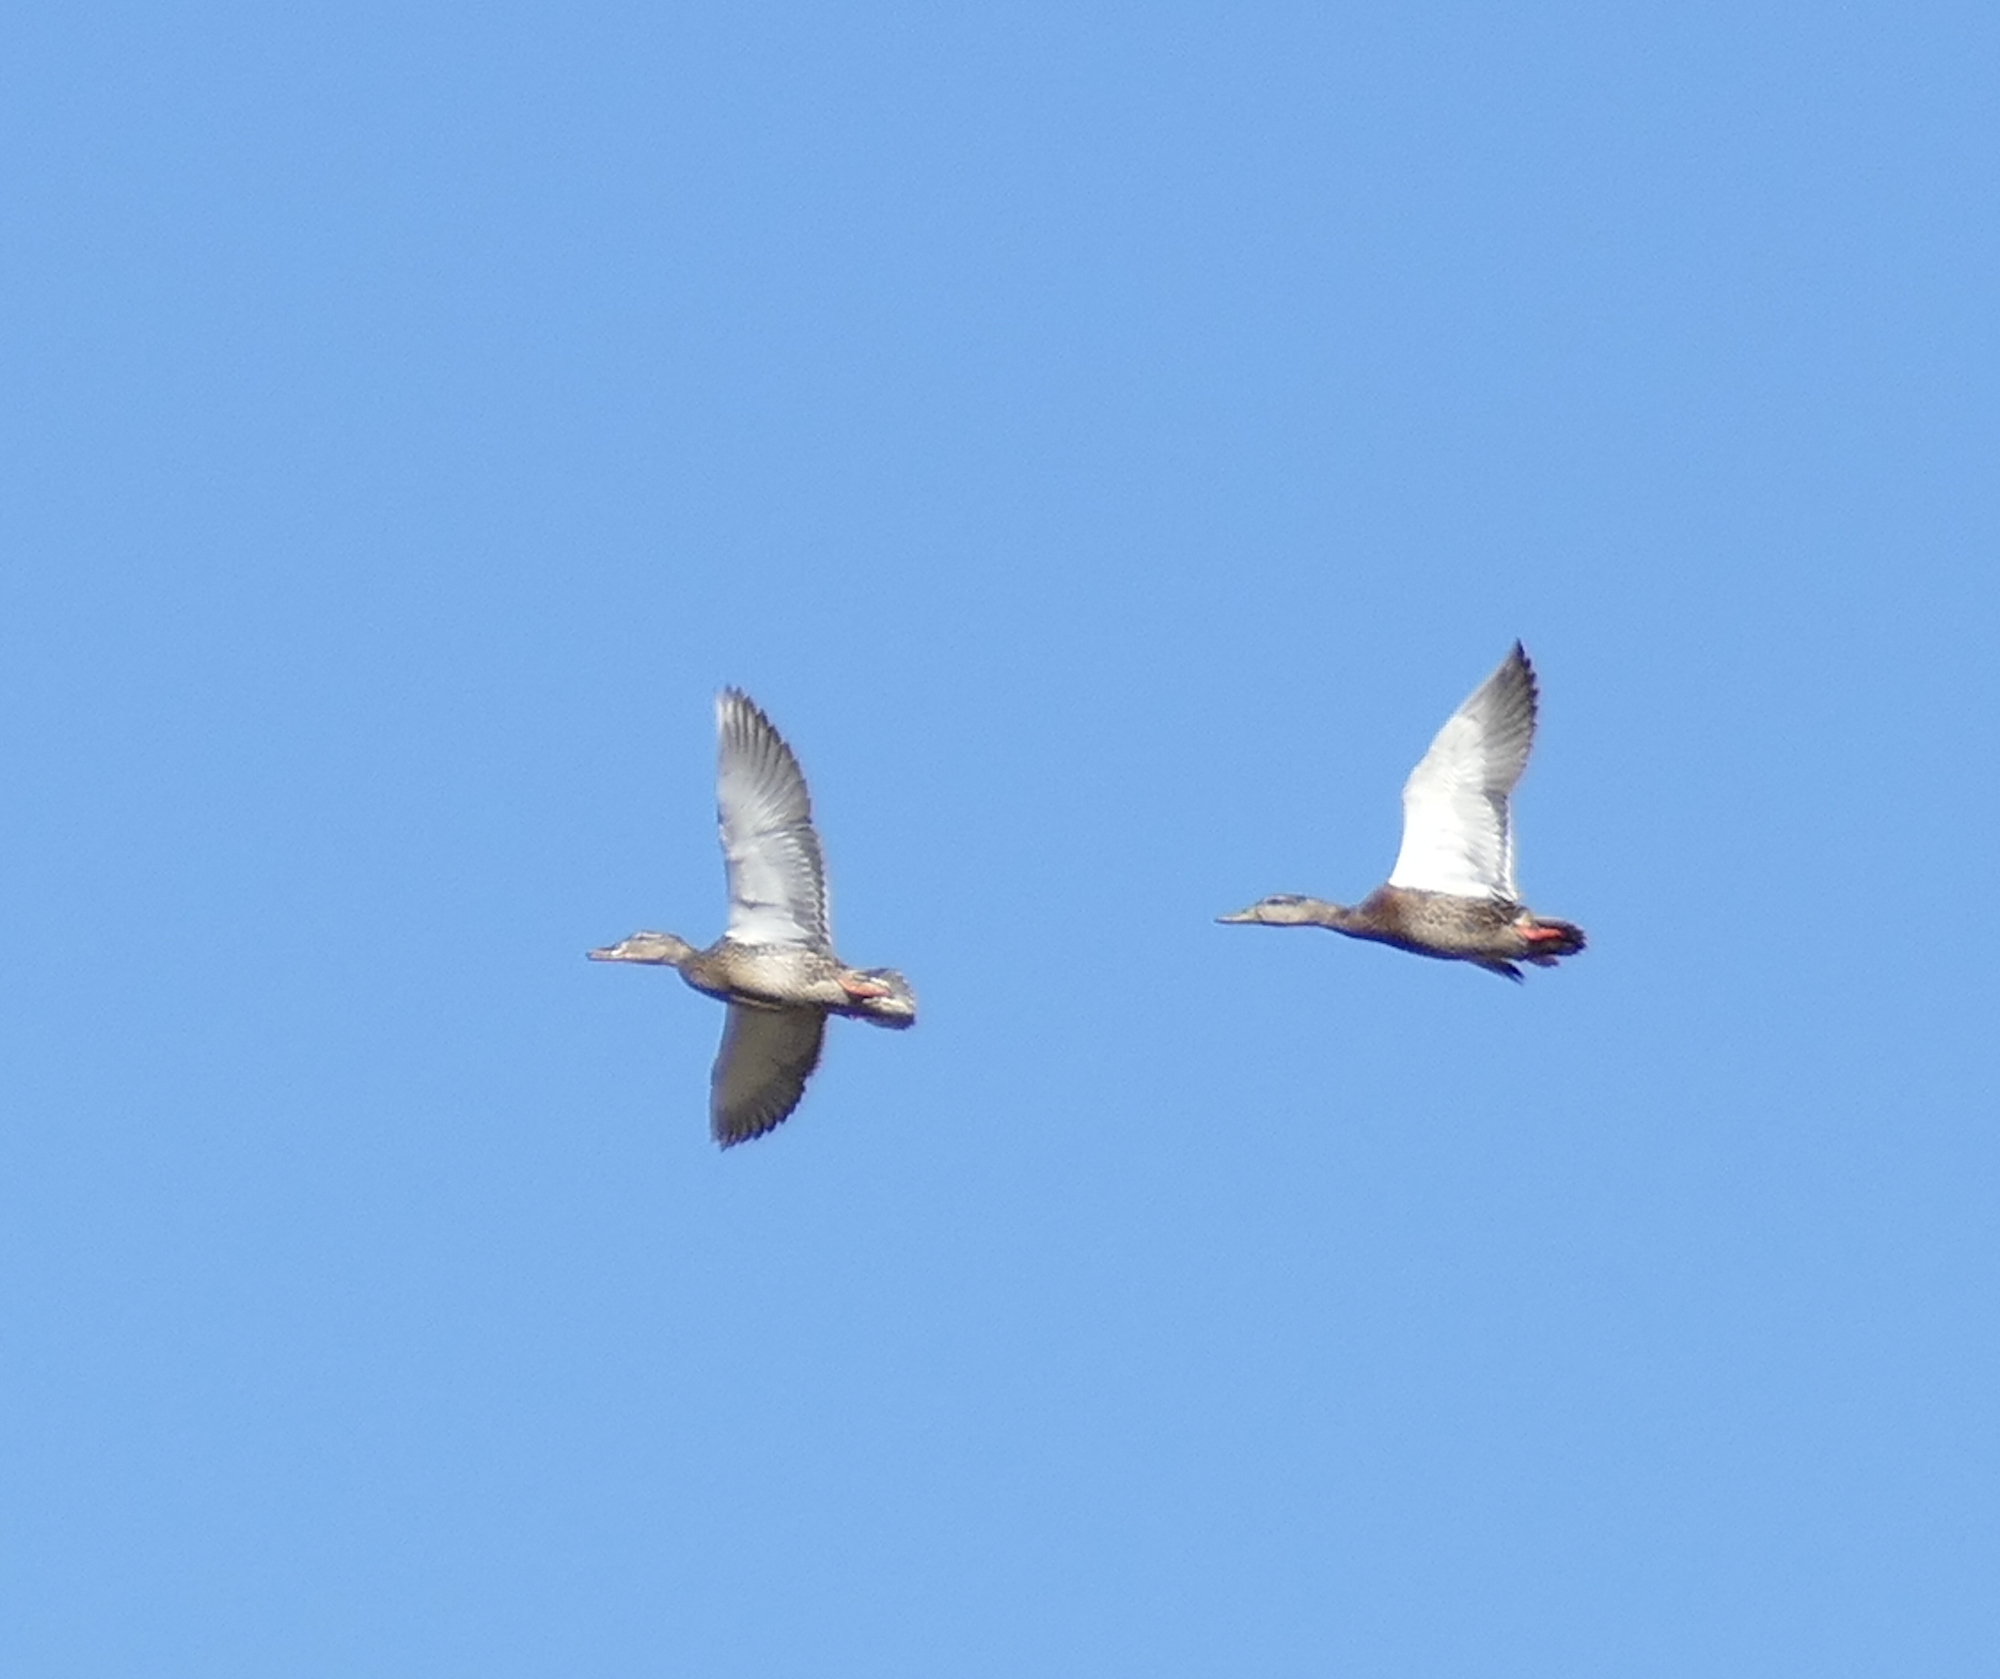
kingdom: Animalia
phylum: Chordata
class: Aves
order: Anseriformes
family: Anatidae
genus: Anas
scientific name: Anas diazi
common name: Mexican duck
